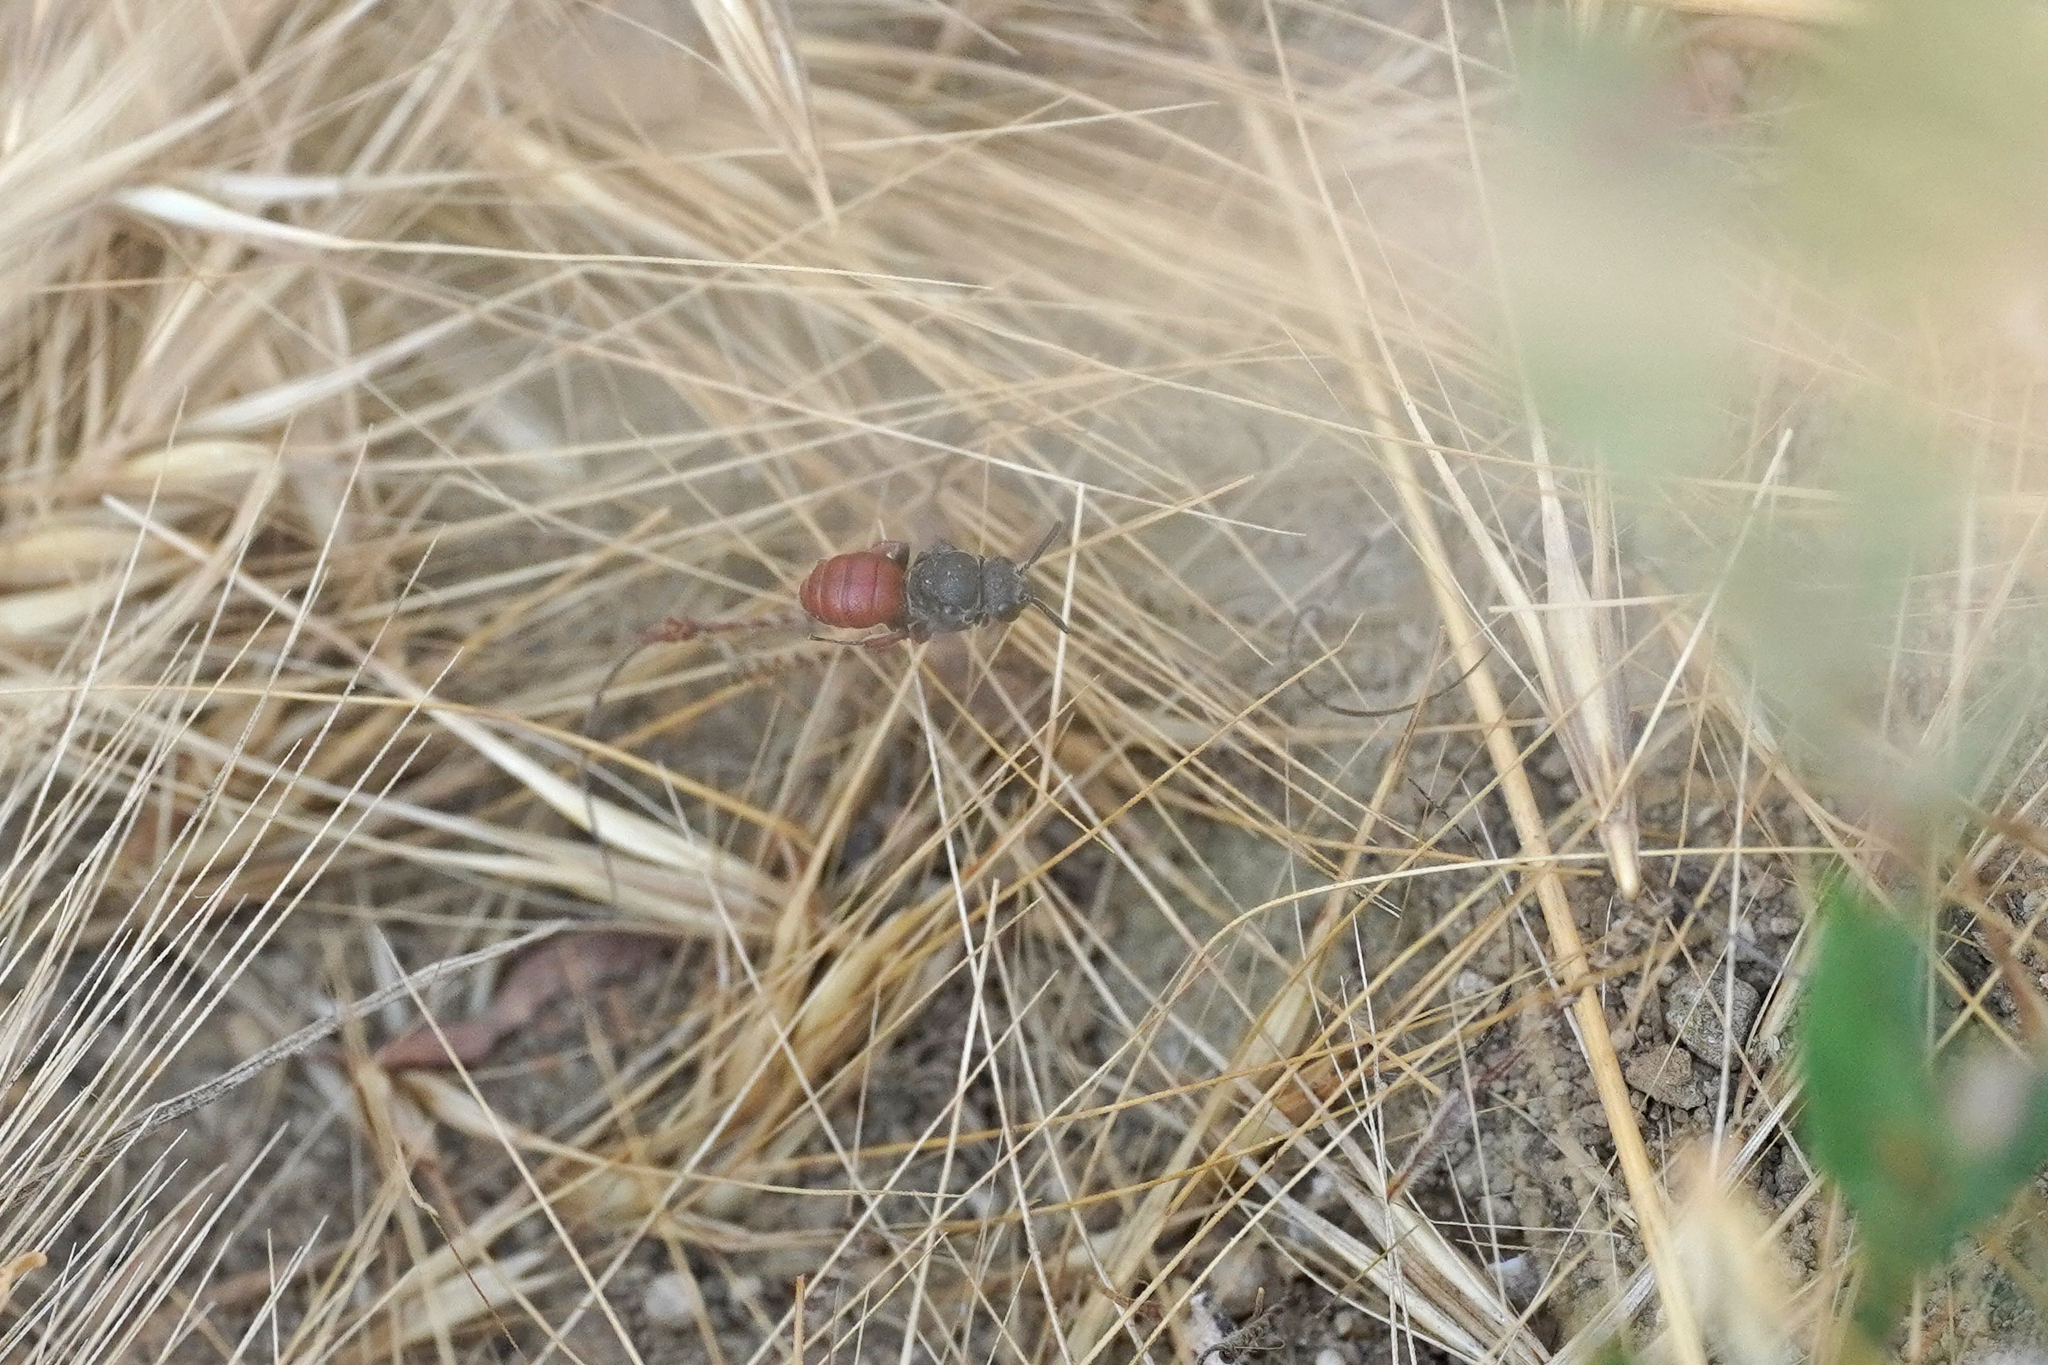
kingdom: Animalia
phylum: Arthropoda
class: Insecta
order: Hymenoptera
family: Apidae
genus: Biastes
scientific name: Biastes brevicornis
